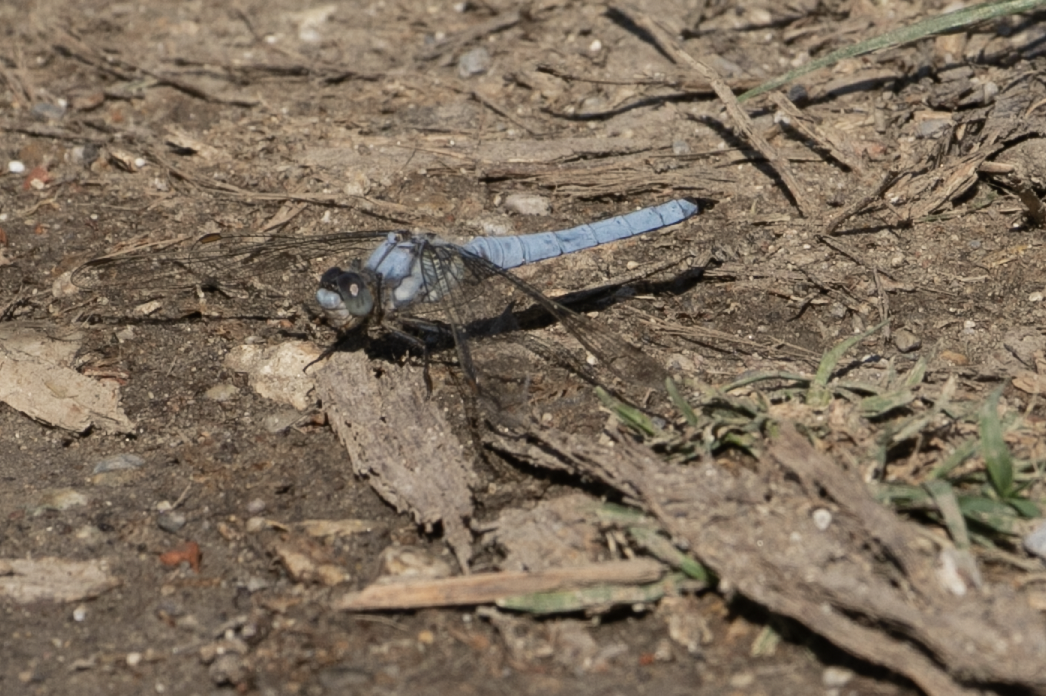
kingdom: Animalia
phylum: Arthropoda
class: Insecta
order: Odonata
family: Libellulidae
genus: Orthetrum
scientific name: Orthetrum brunneum
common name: Southern skimmer
